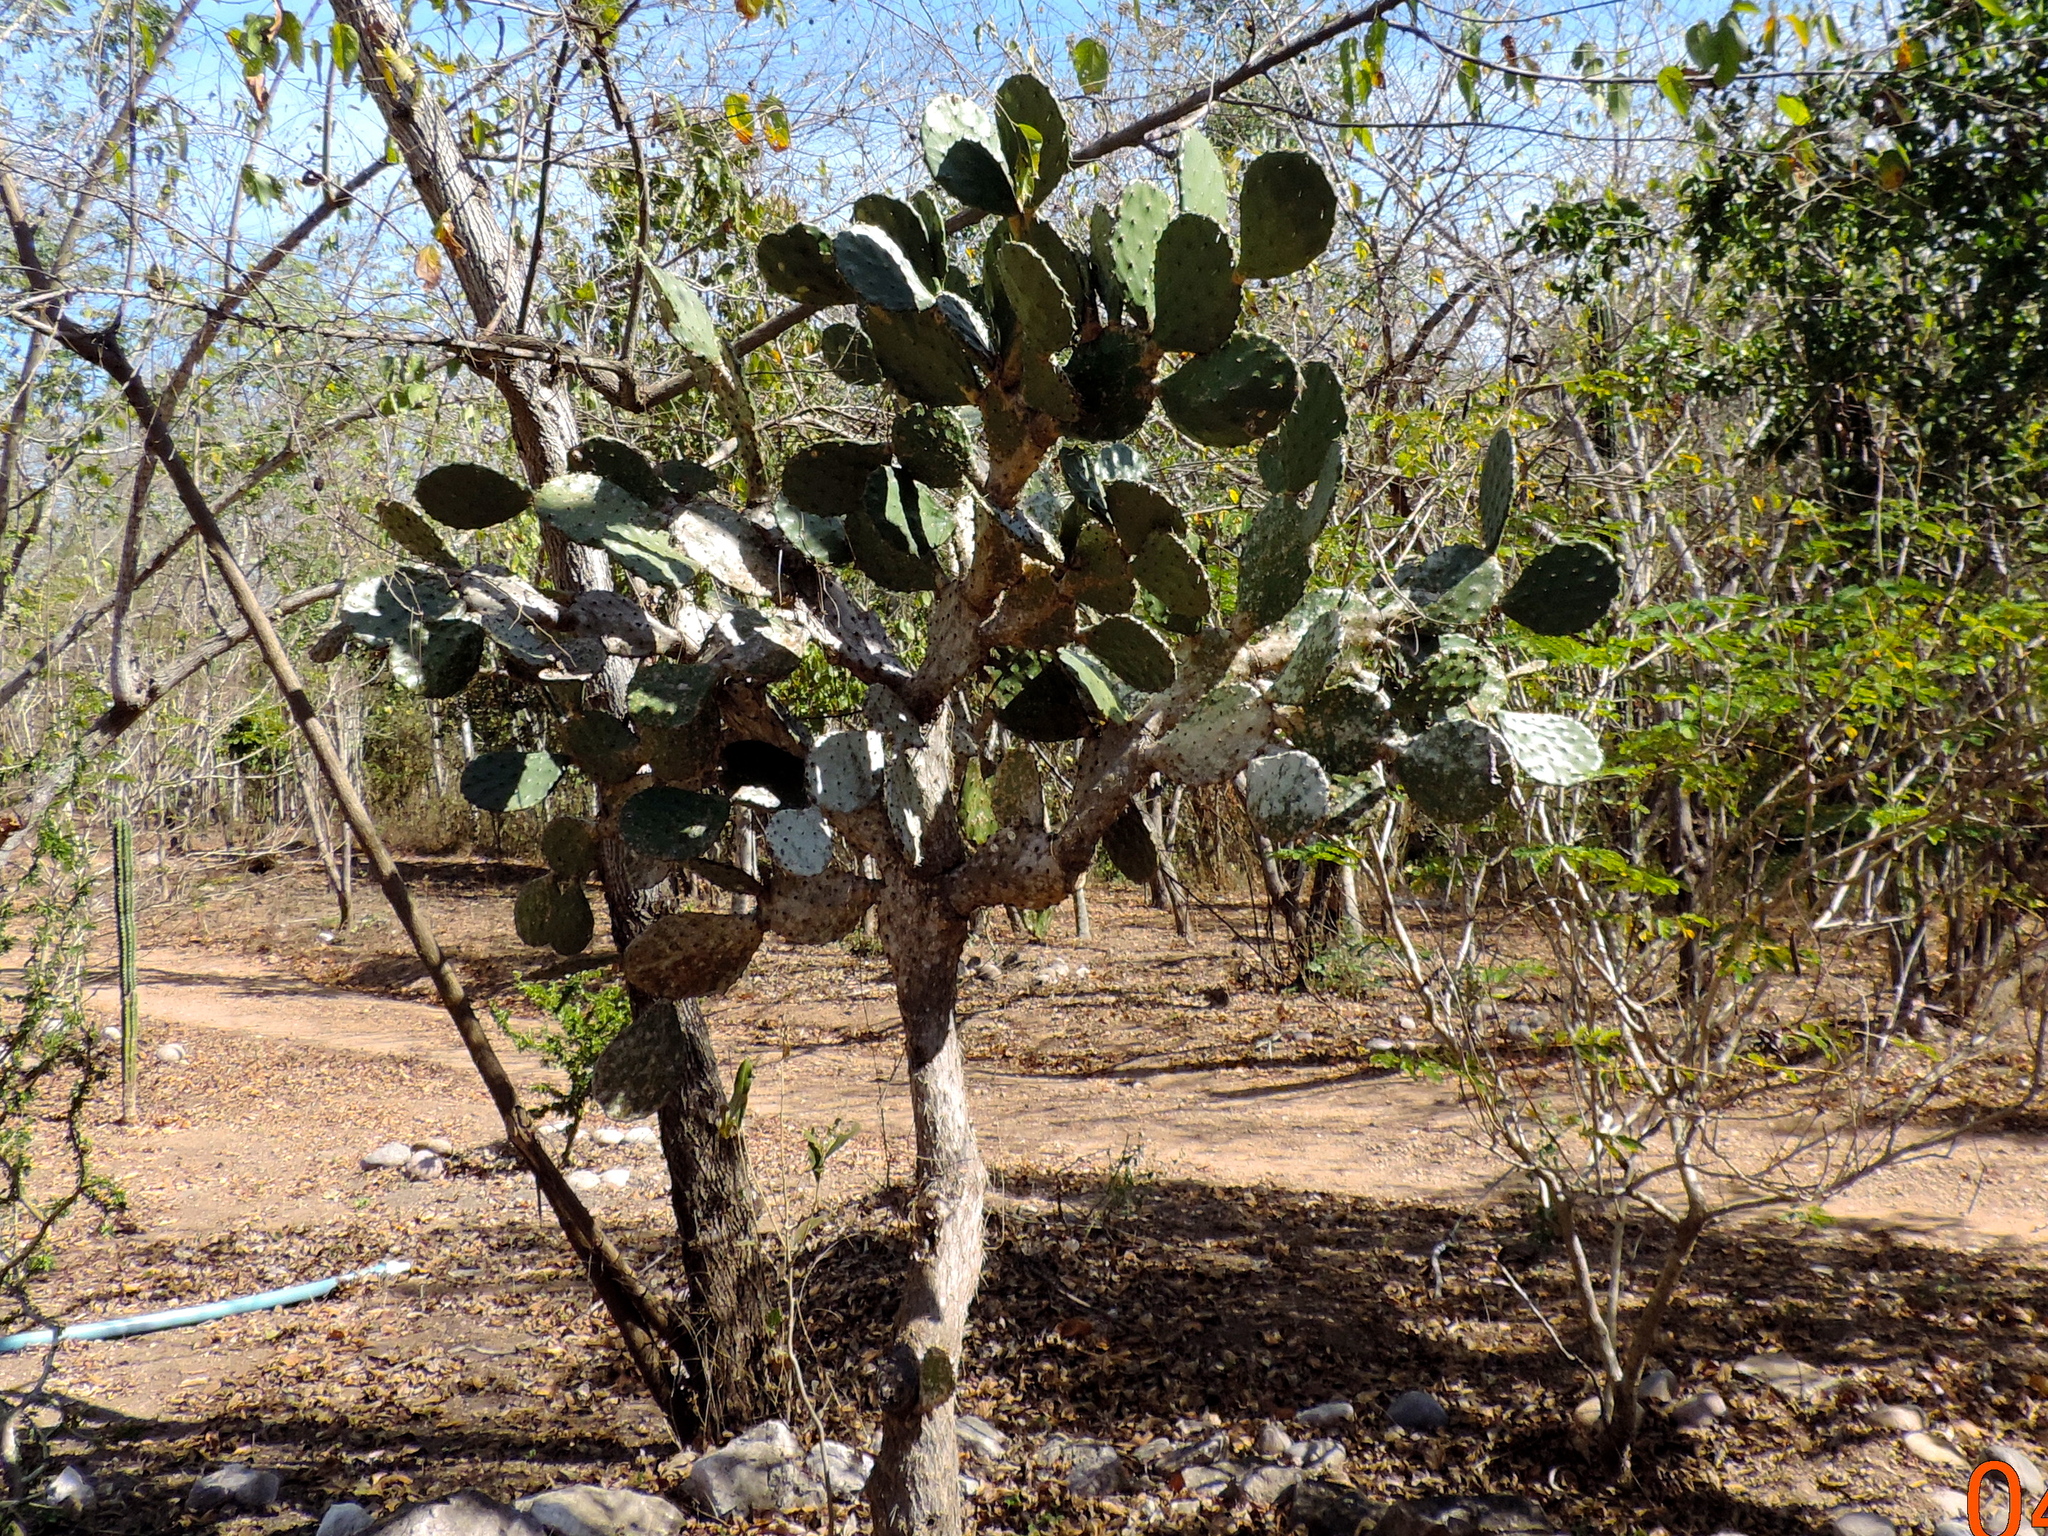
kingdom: Plantae
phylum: Tracheophyta
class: Magnoliopsida
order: Caryophyllales
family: Cactaceae
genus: Opuntia
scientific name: Opuntia
